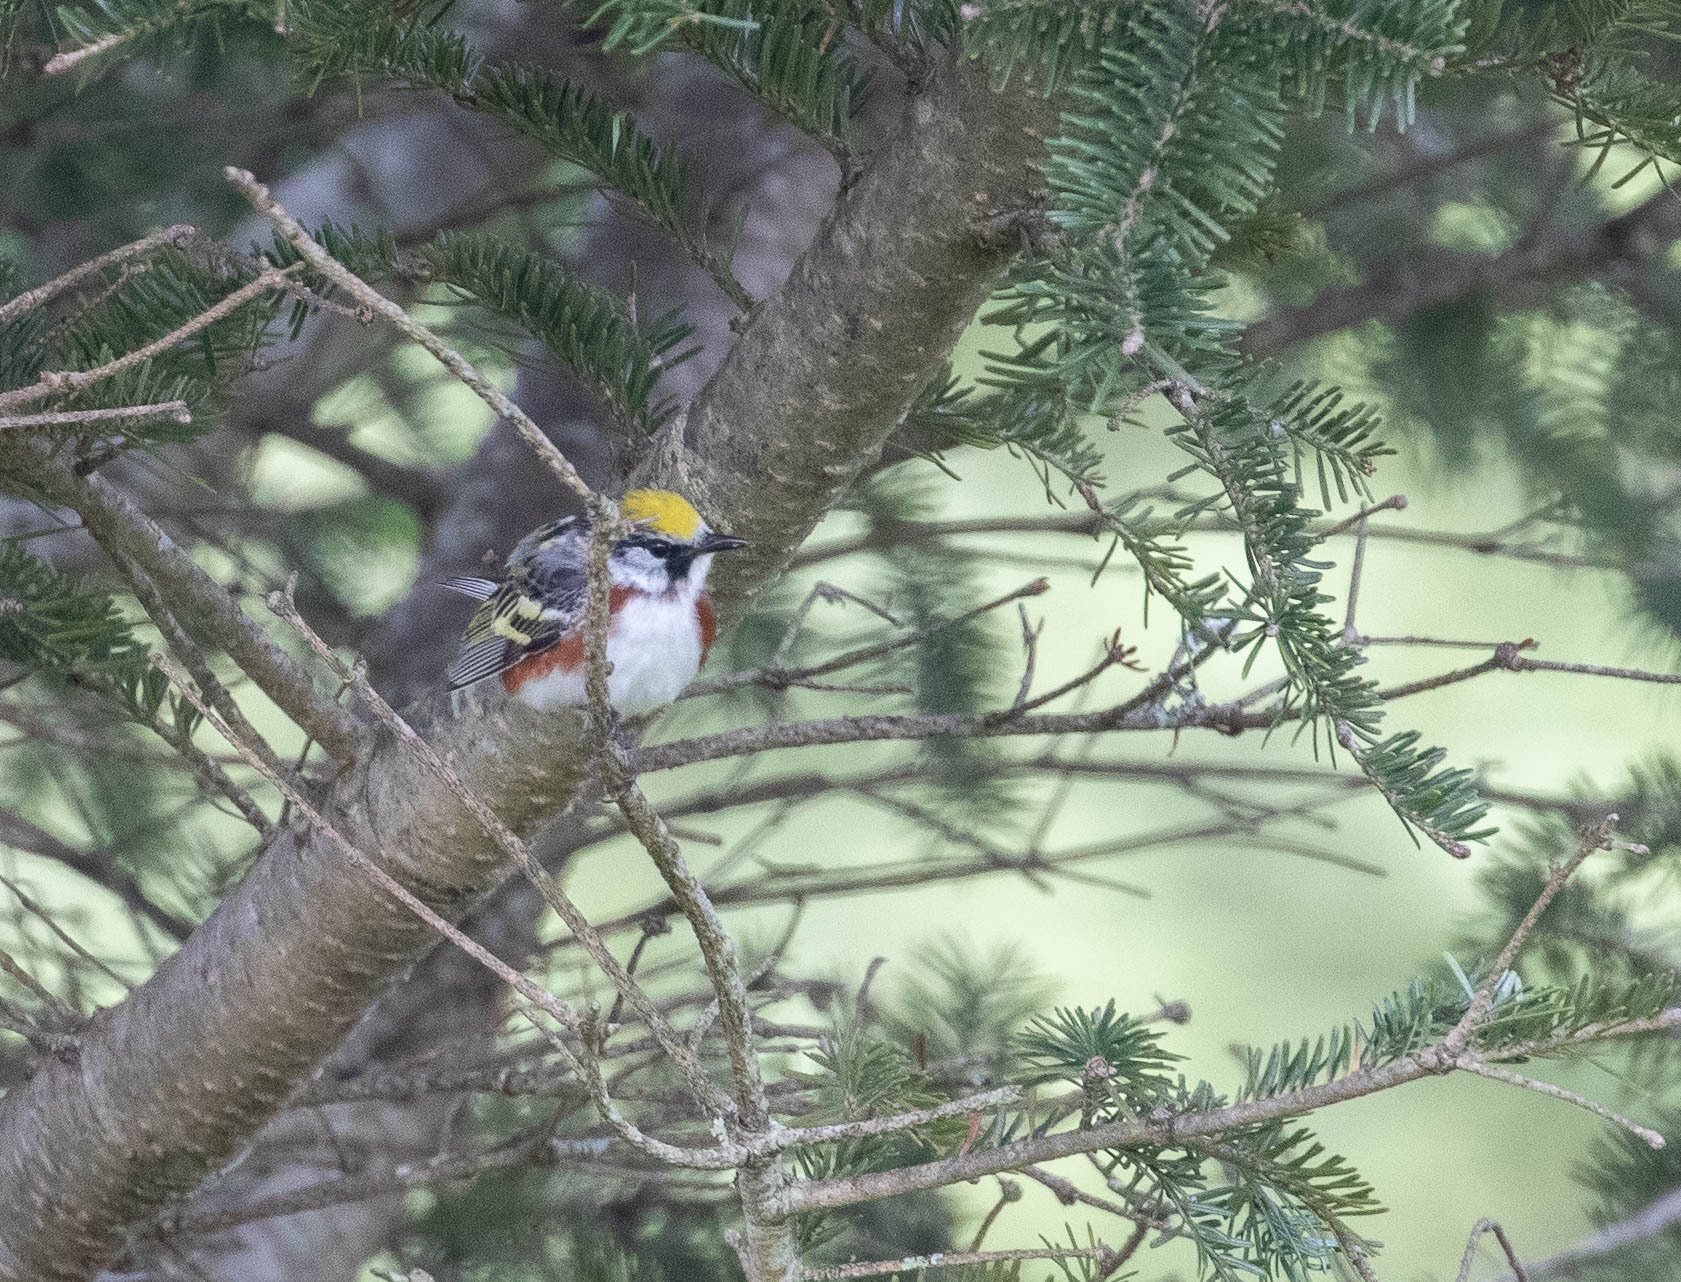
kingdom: Animalia
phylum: Chordata
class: Aves
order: Passeriformes
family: Parulidae
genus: Setophaga
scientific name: Setophaga pensylvanica
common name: Chestnut-sided warbler
